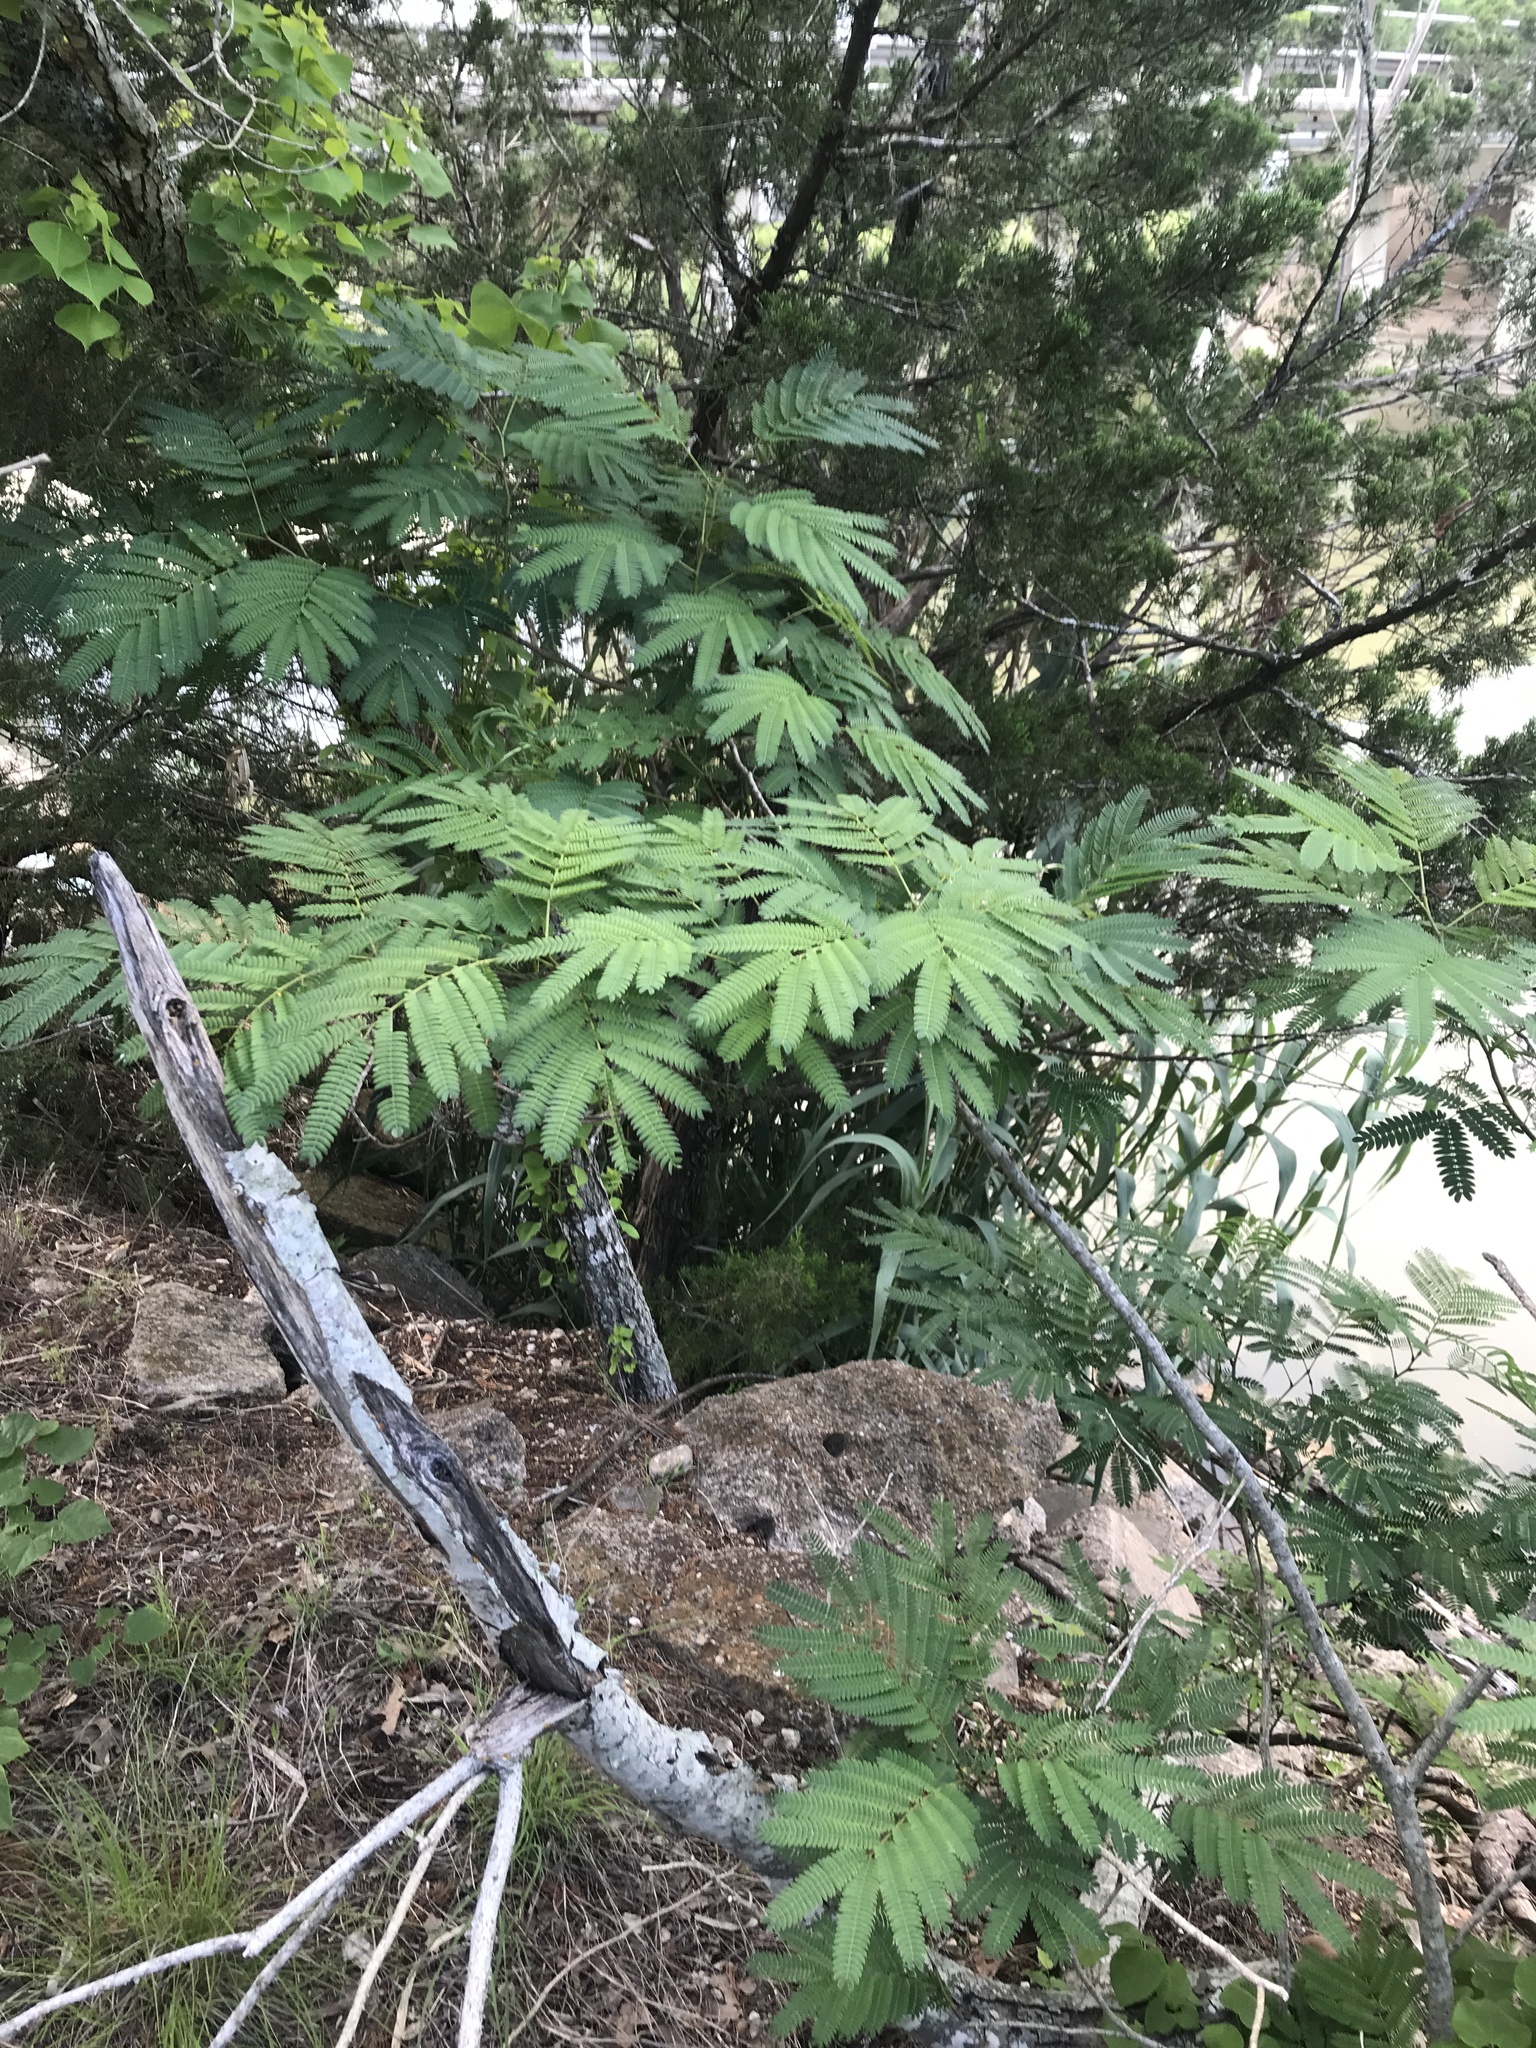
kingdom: Plantae
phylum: Tracheophyta
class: Magnoliopsida
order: Fabales
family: Fabaceae
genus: Albizia
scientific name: Albizia julibrissin
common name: Silktree
